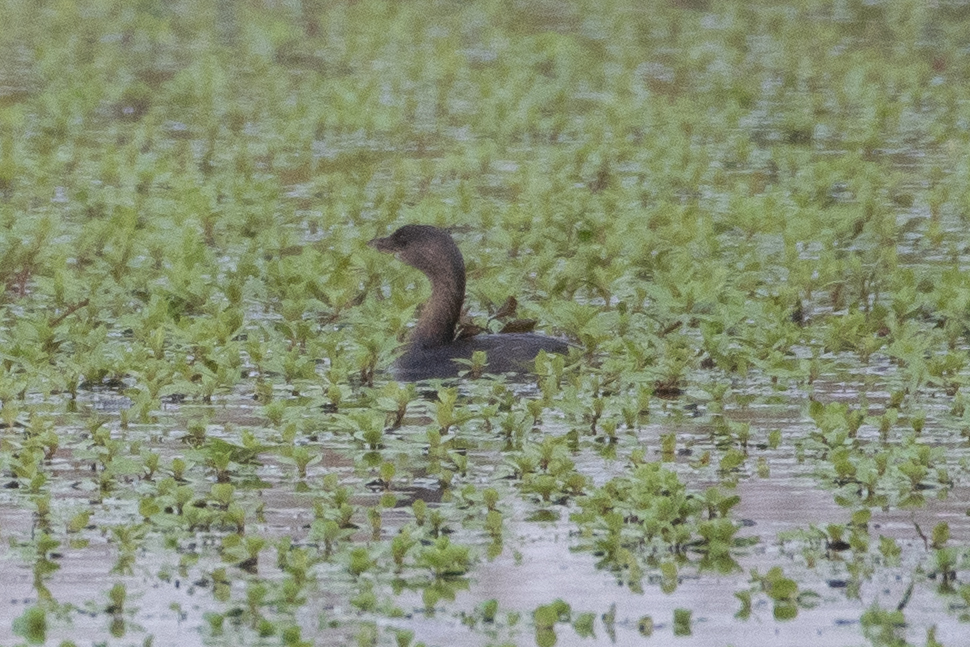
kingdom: Animalia
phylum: Chordata
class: Aves
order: Podicipediformes
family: Podicipedidae
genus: Podilymbus
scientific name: Podilymbus podiceps
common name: Pied-billed grebe
